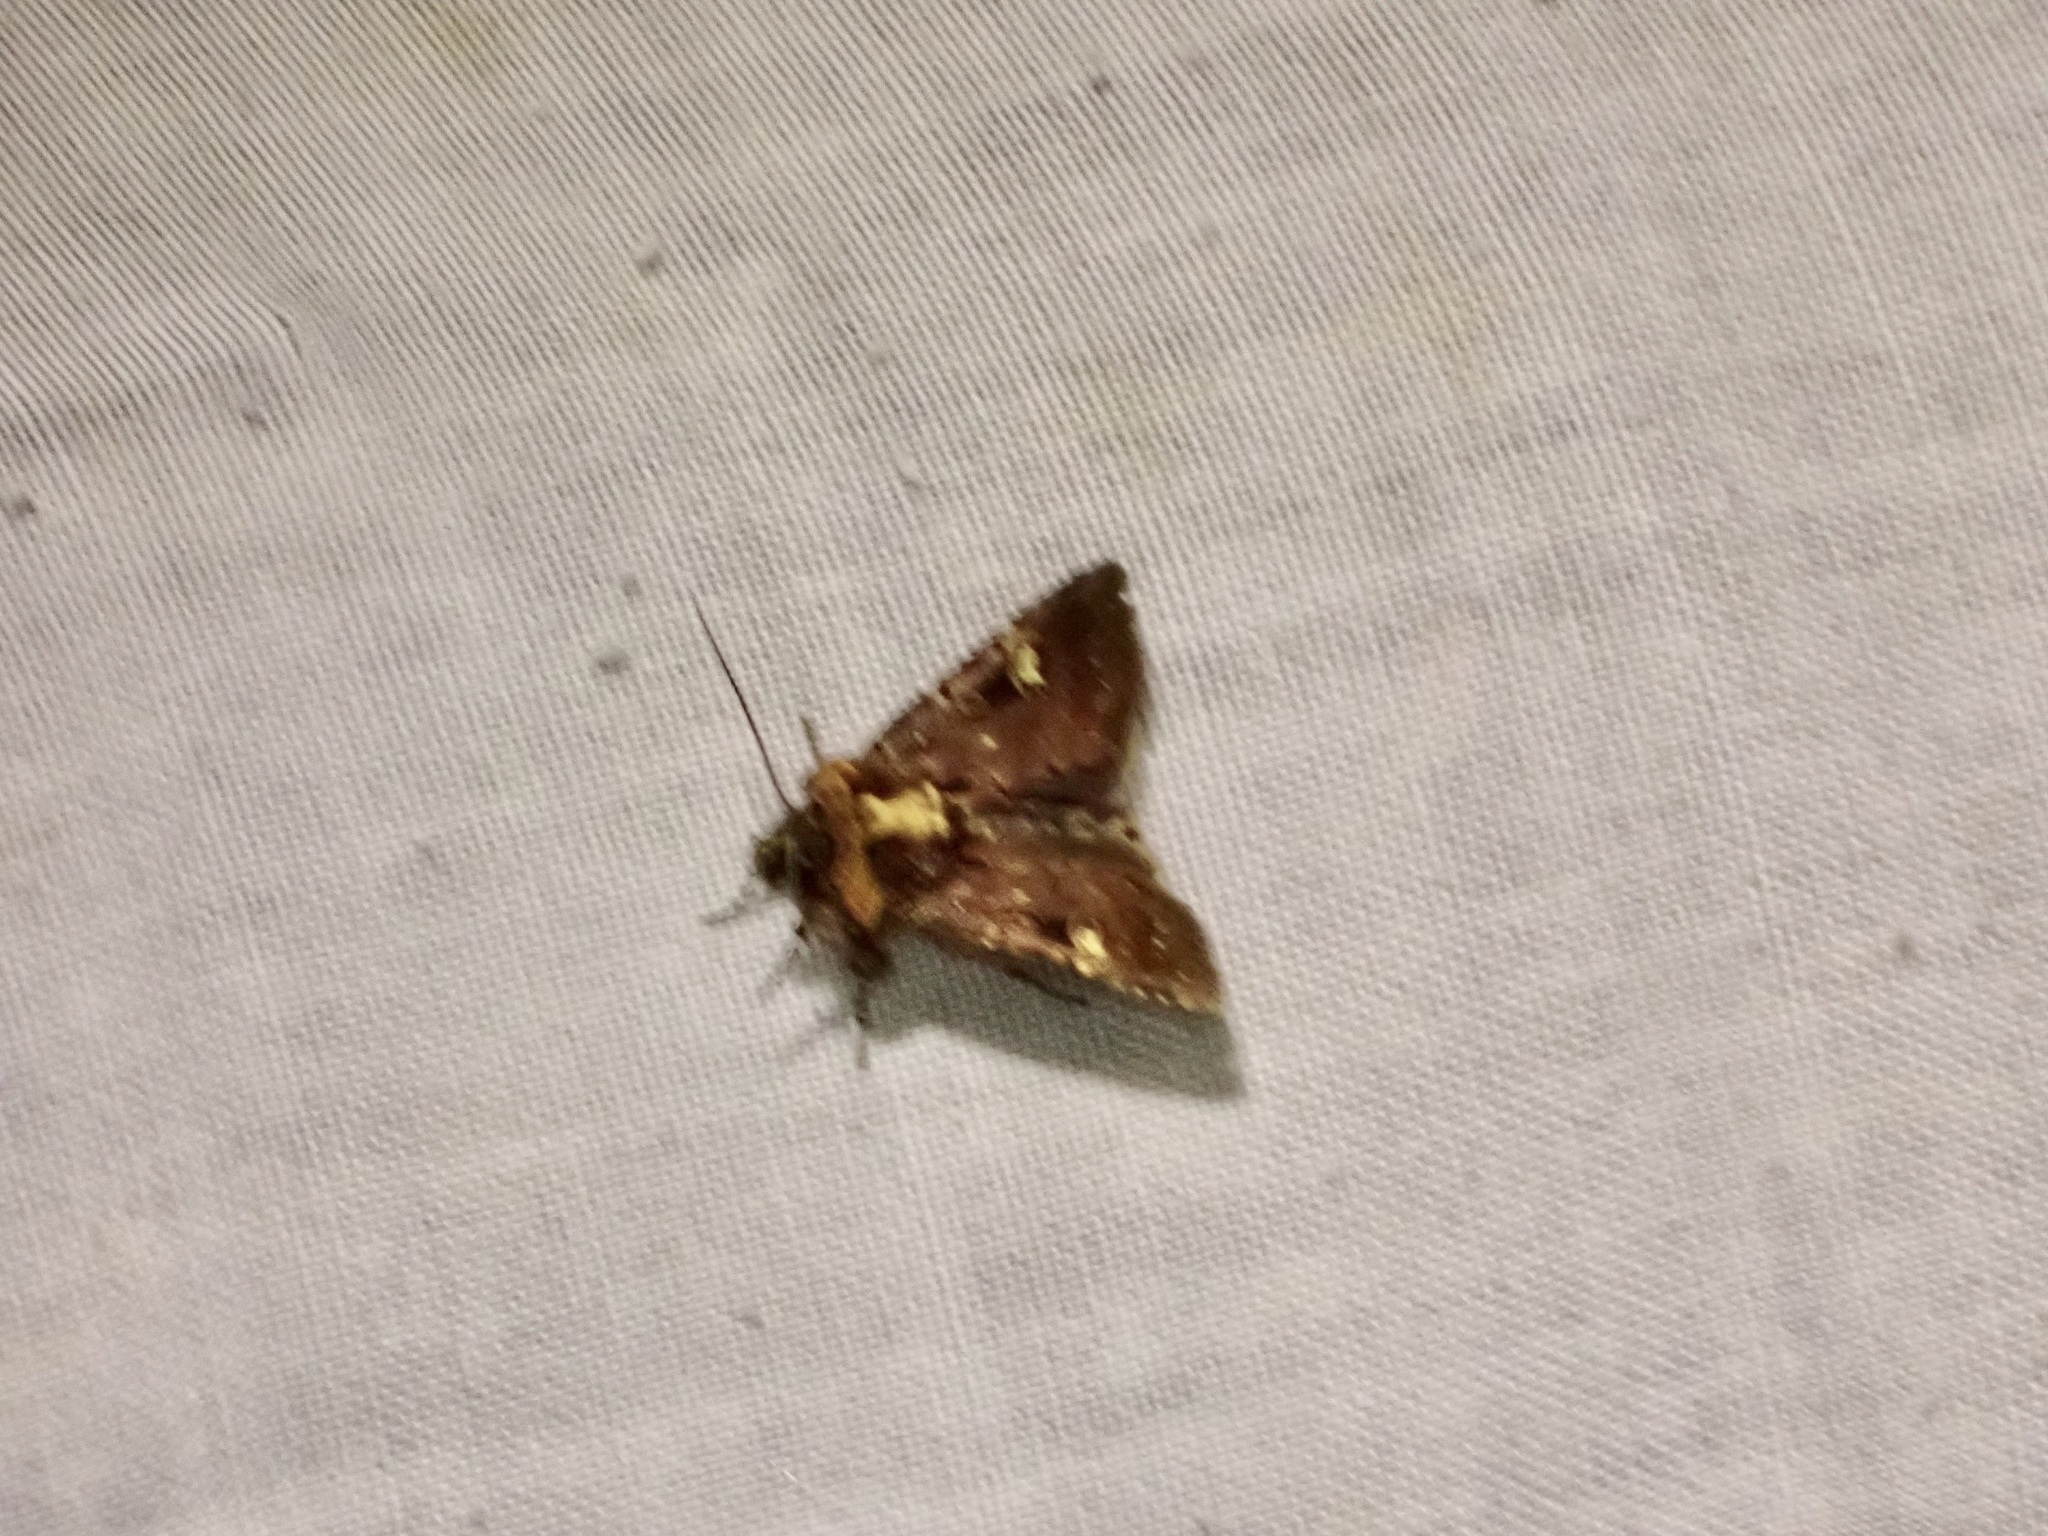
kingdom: Animalia
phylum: Arthropoda
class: Insecta
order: Lepidoptera
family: Noctuidae
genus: Austramathes
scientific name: Austramathes
